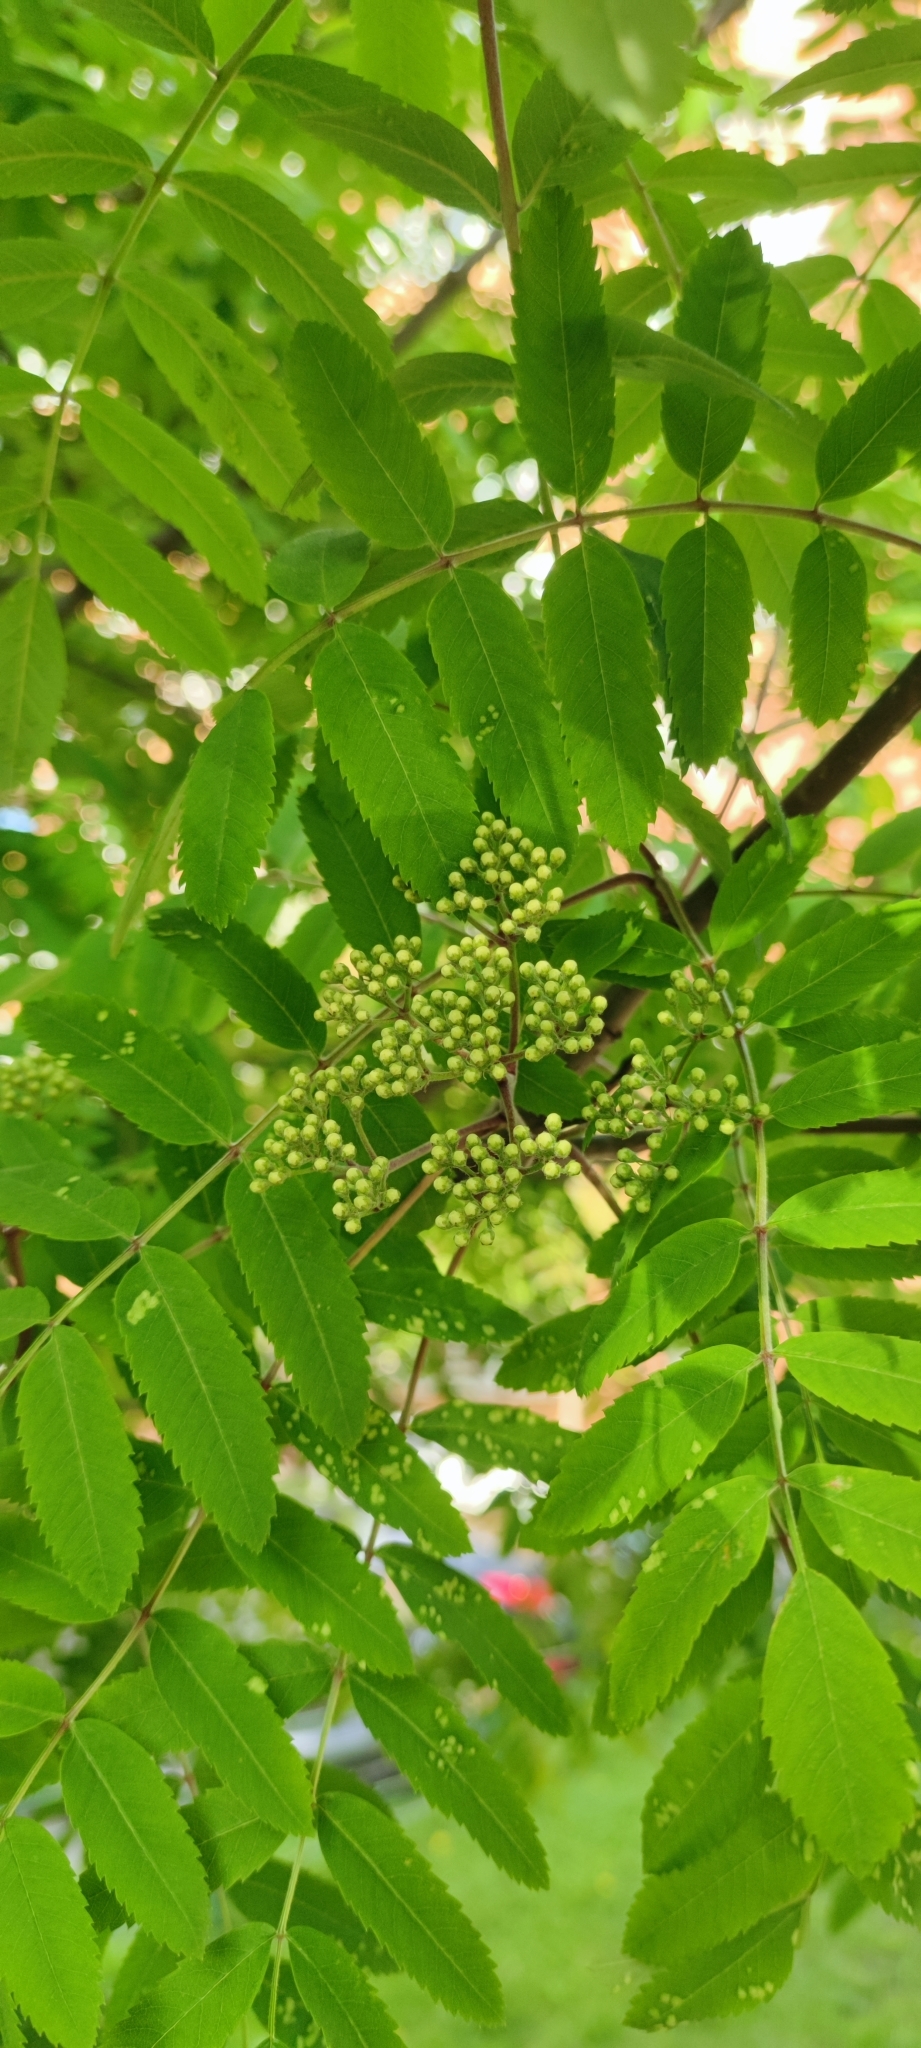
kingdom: Plantae
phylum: Tracheophyta
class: Magnoliopsida
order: Rosales
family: Rosaceae
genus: Sorbus
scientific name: Sorbus aucuparia
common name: Rowan
